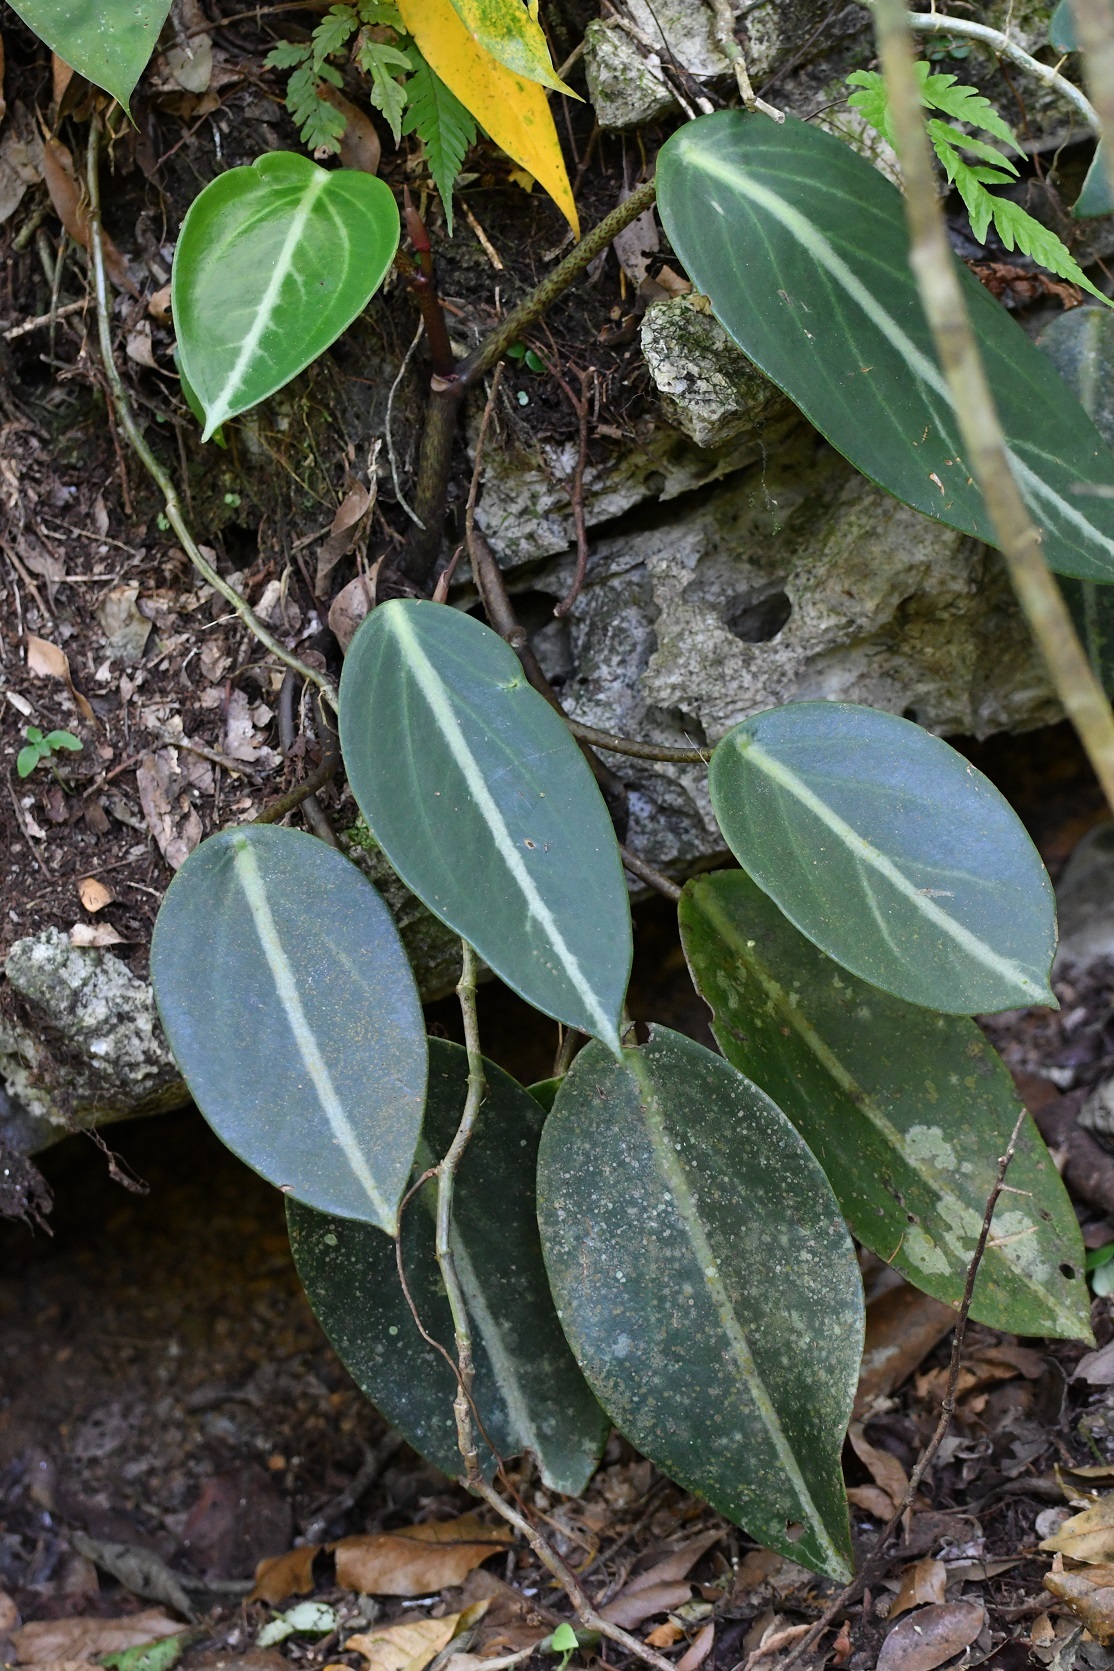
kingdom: Plantae
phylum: Tracheophyta
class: Magnoliopsida
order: Piperales
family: Piperaceae
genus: Peperomia
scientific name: Peperomia maculosa
